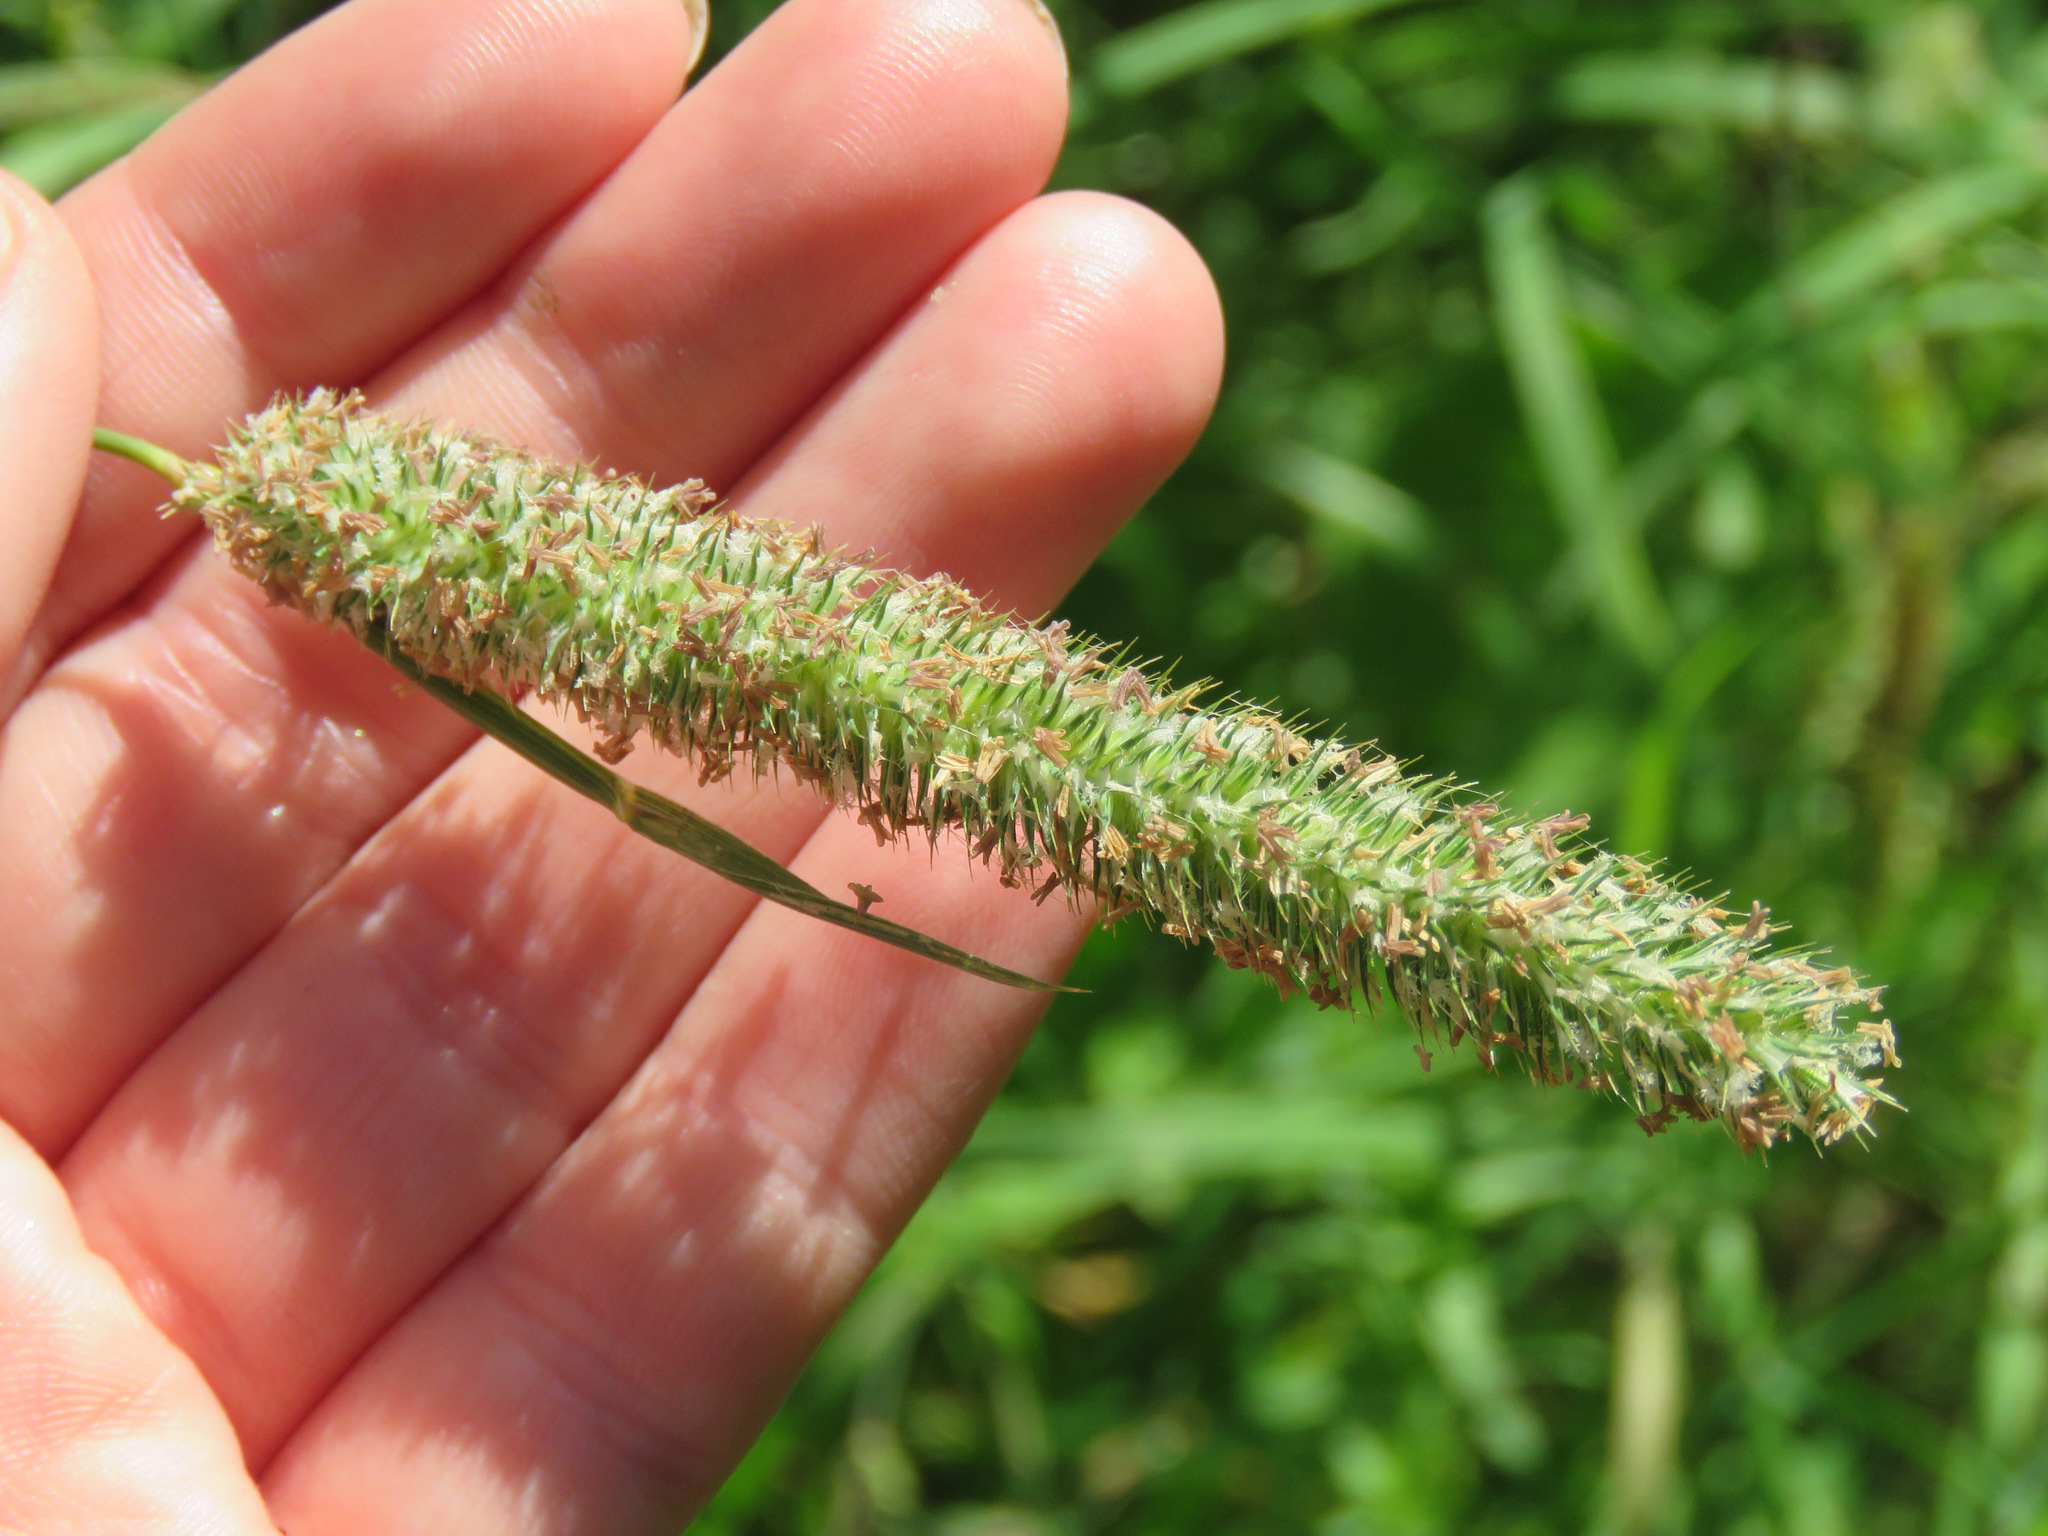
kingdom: Plantae
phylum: Tracheophyta
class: Liliopsida
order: Poales
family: Poaceae
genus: Phleum
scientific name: Phleum pratense
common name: Timothy grass
